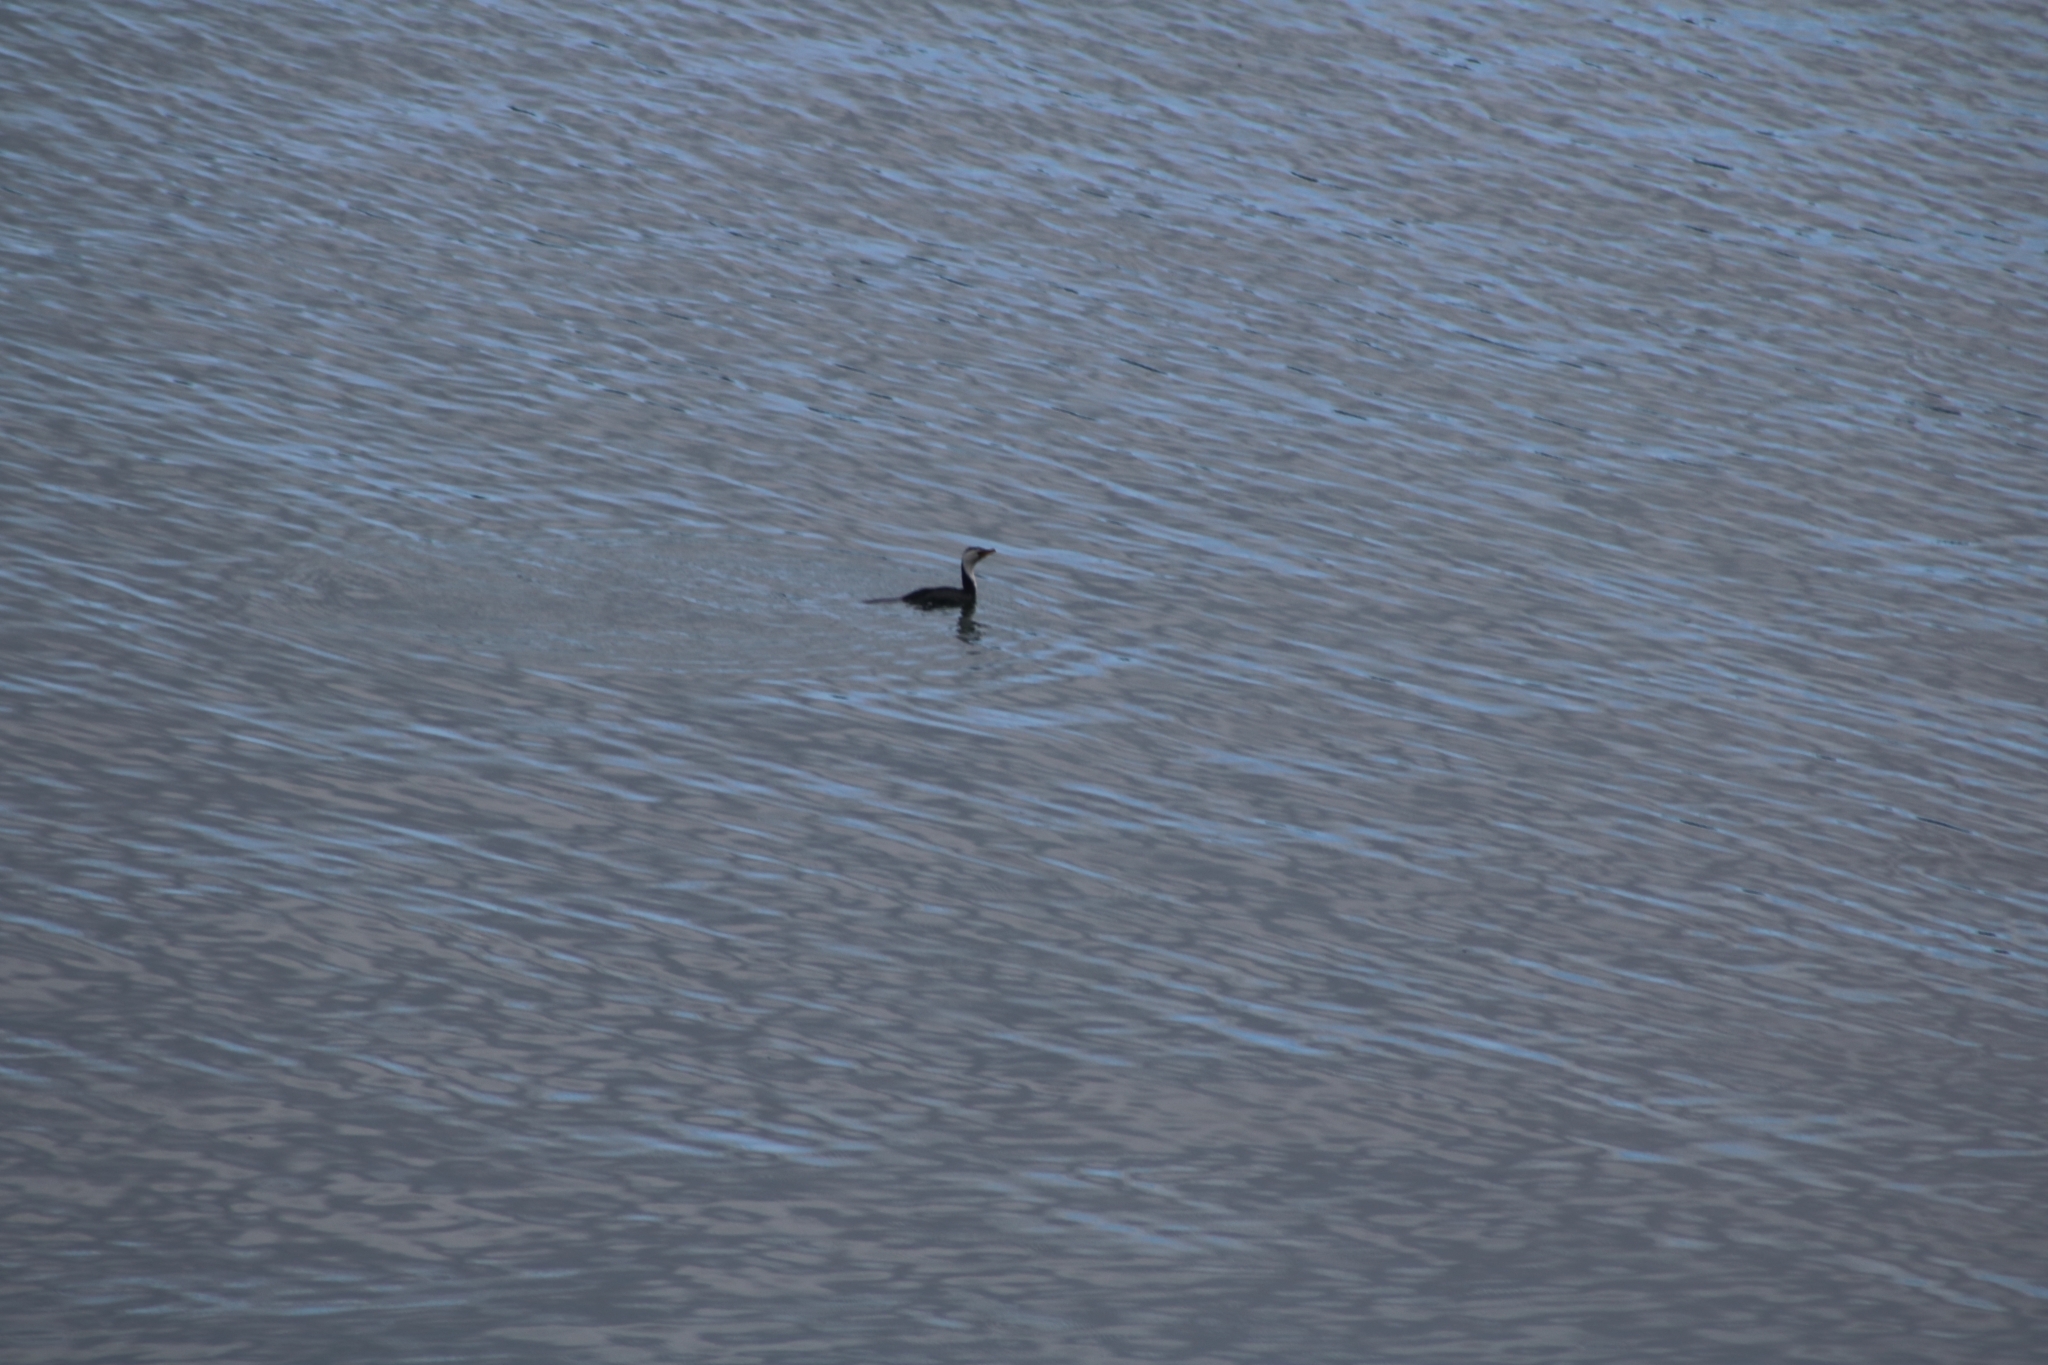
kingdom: Animalia
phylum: Chordata
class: Aves
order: Suliformes
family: Phalacrocoracidae
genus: Microcarbo
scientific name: Microcarbo melanoleucos
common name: Little pied cormorant
